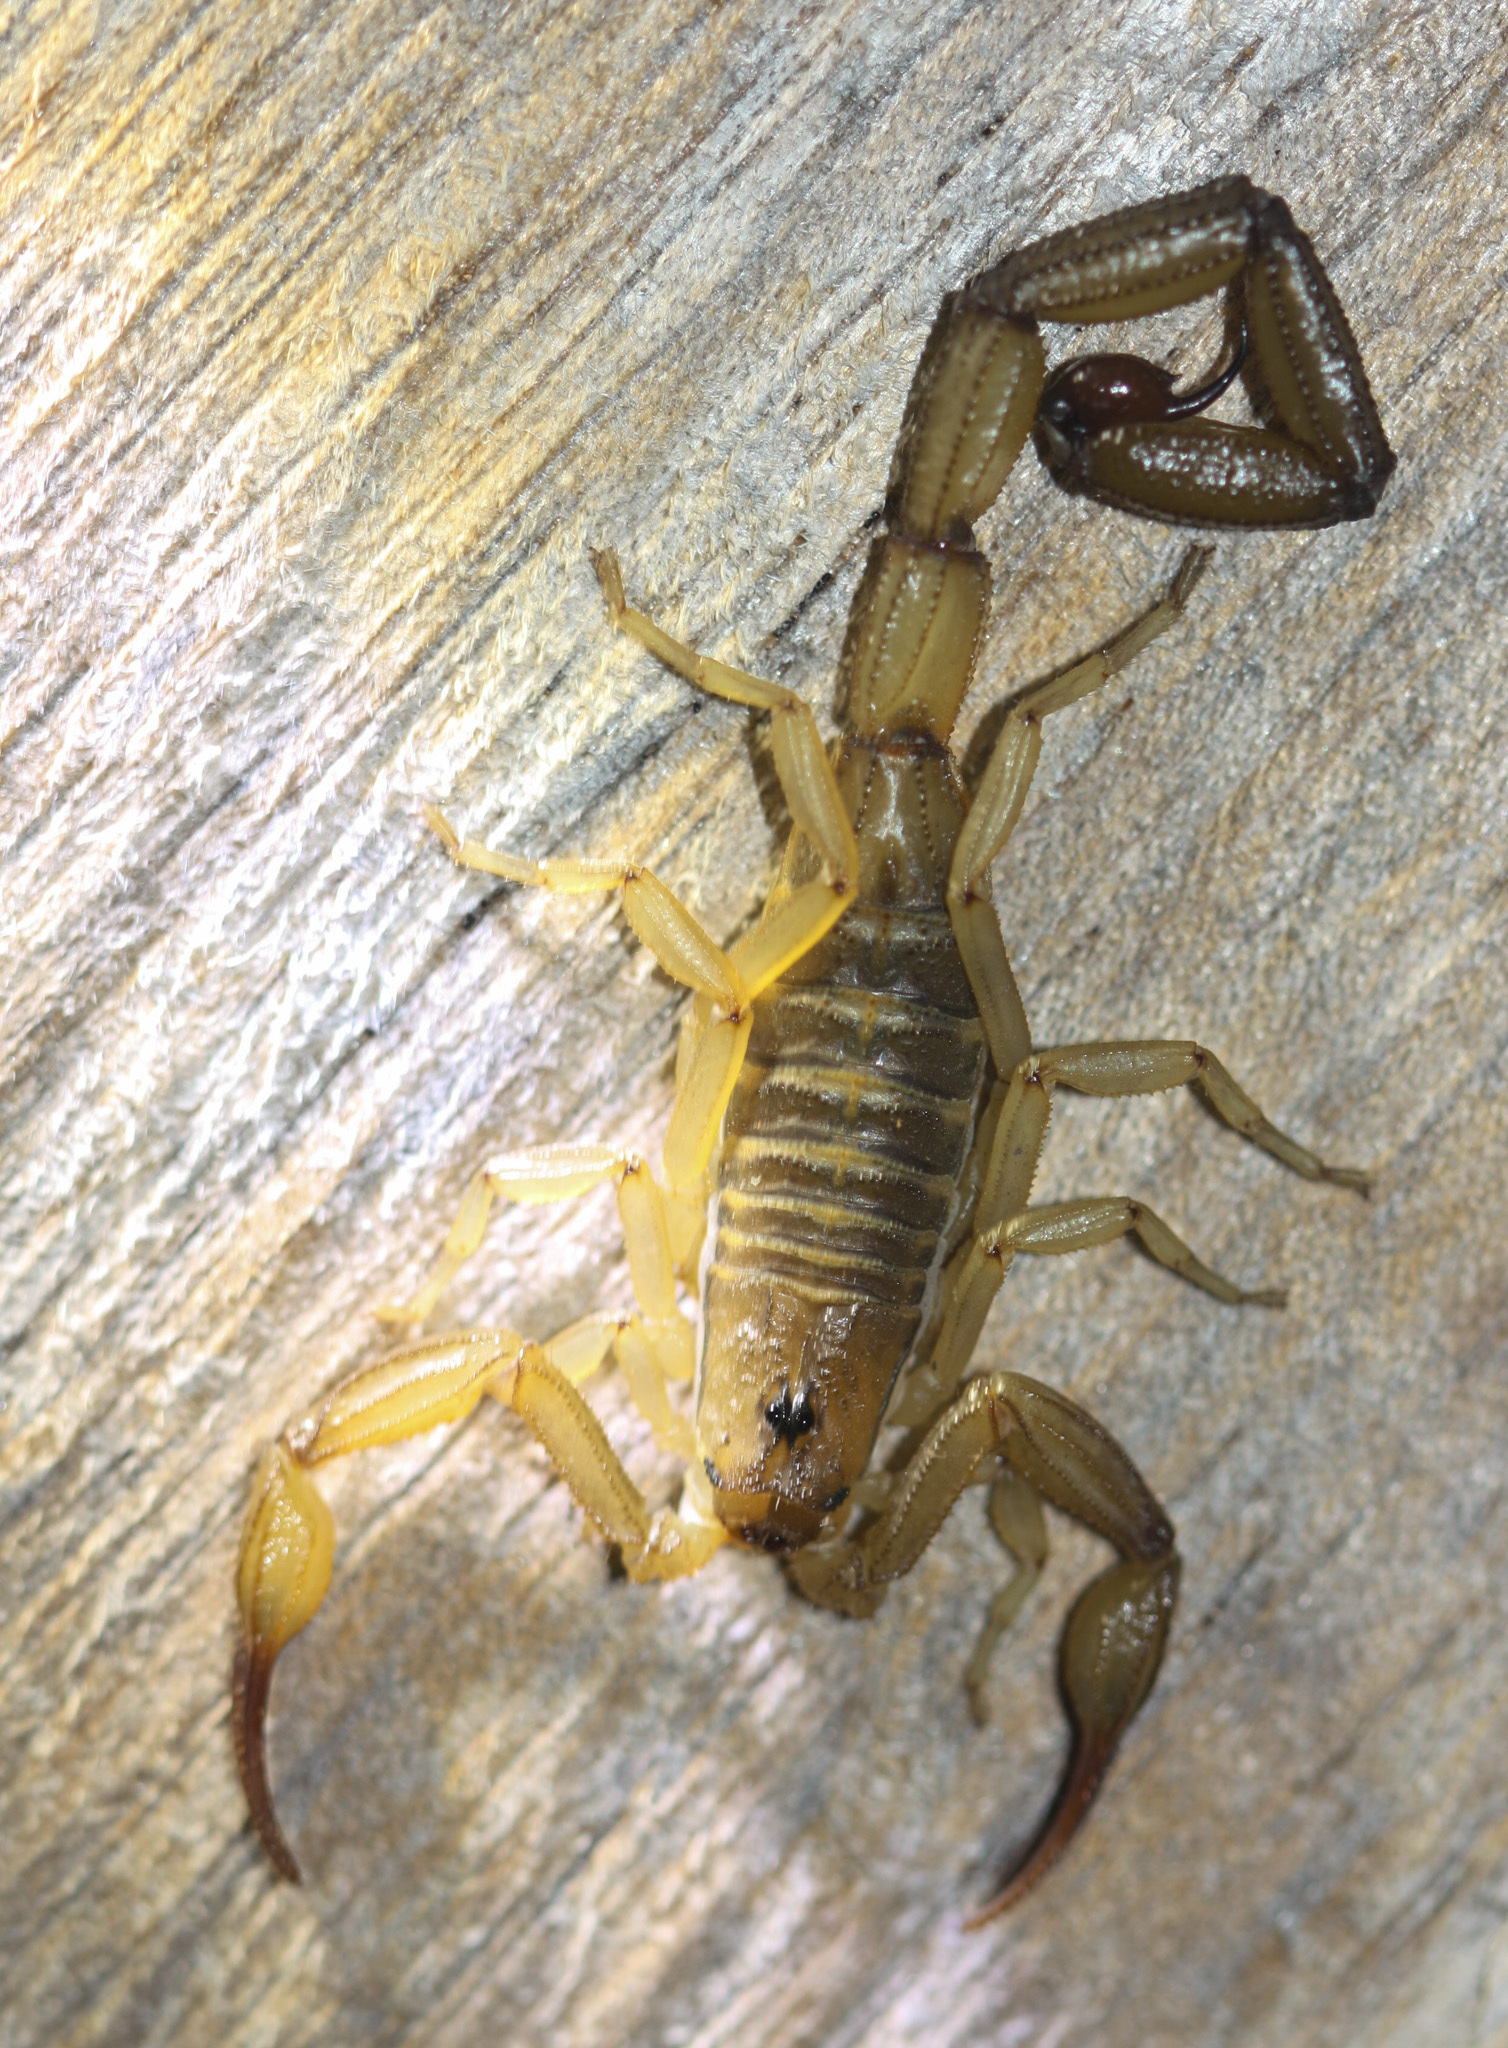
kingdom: Animalia
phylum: Arthropoda
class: Arachnida
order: Scorpiones
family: Buthidae
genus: Centruroides
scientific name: Centruroides koesteri
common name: Scorpions
